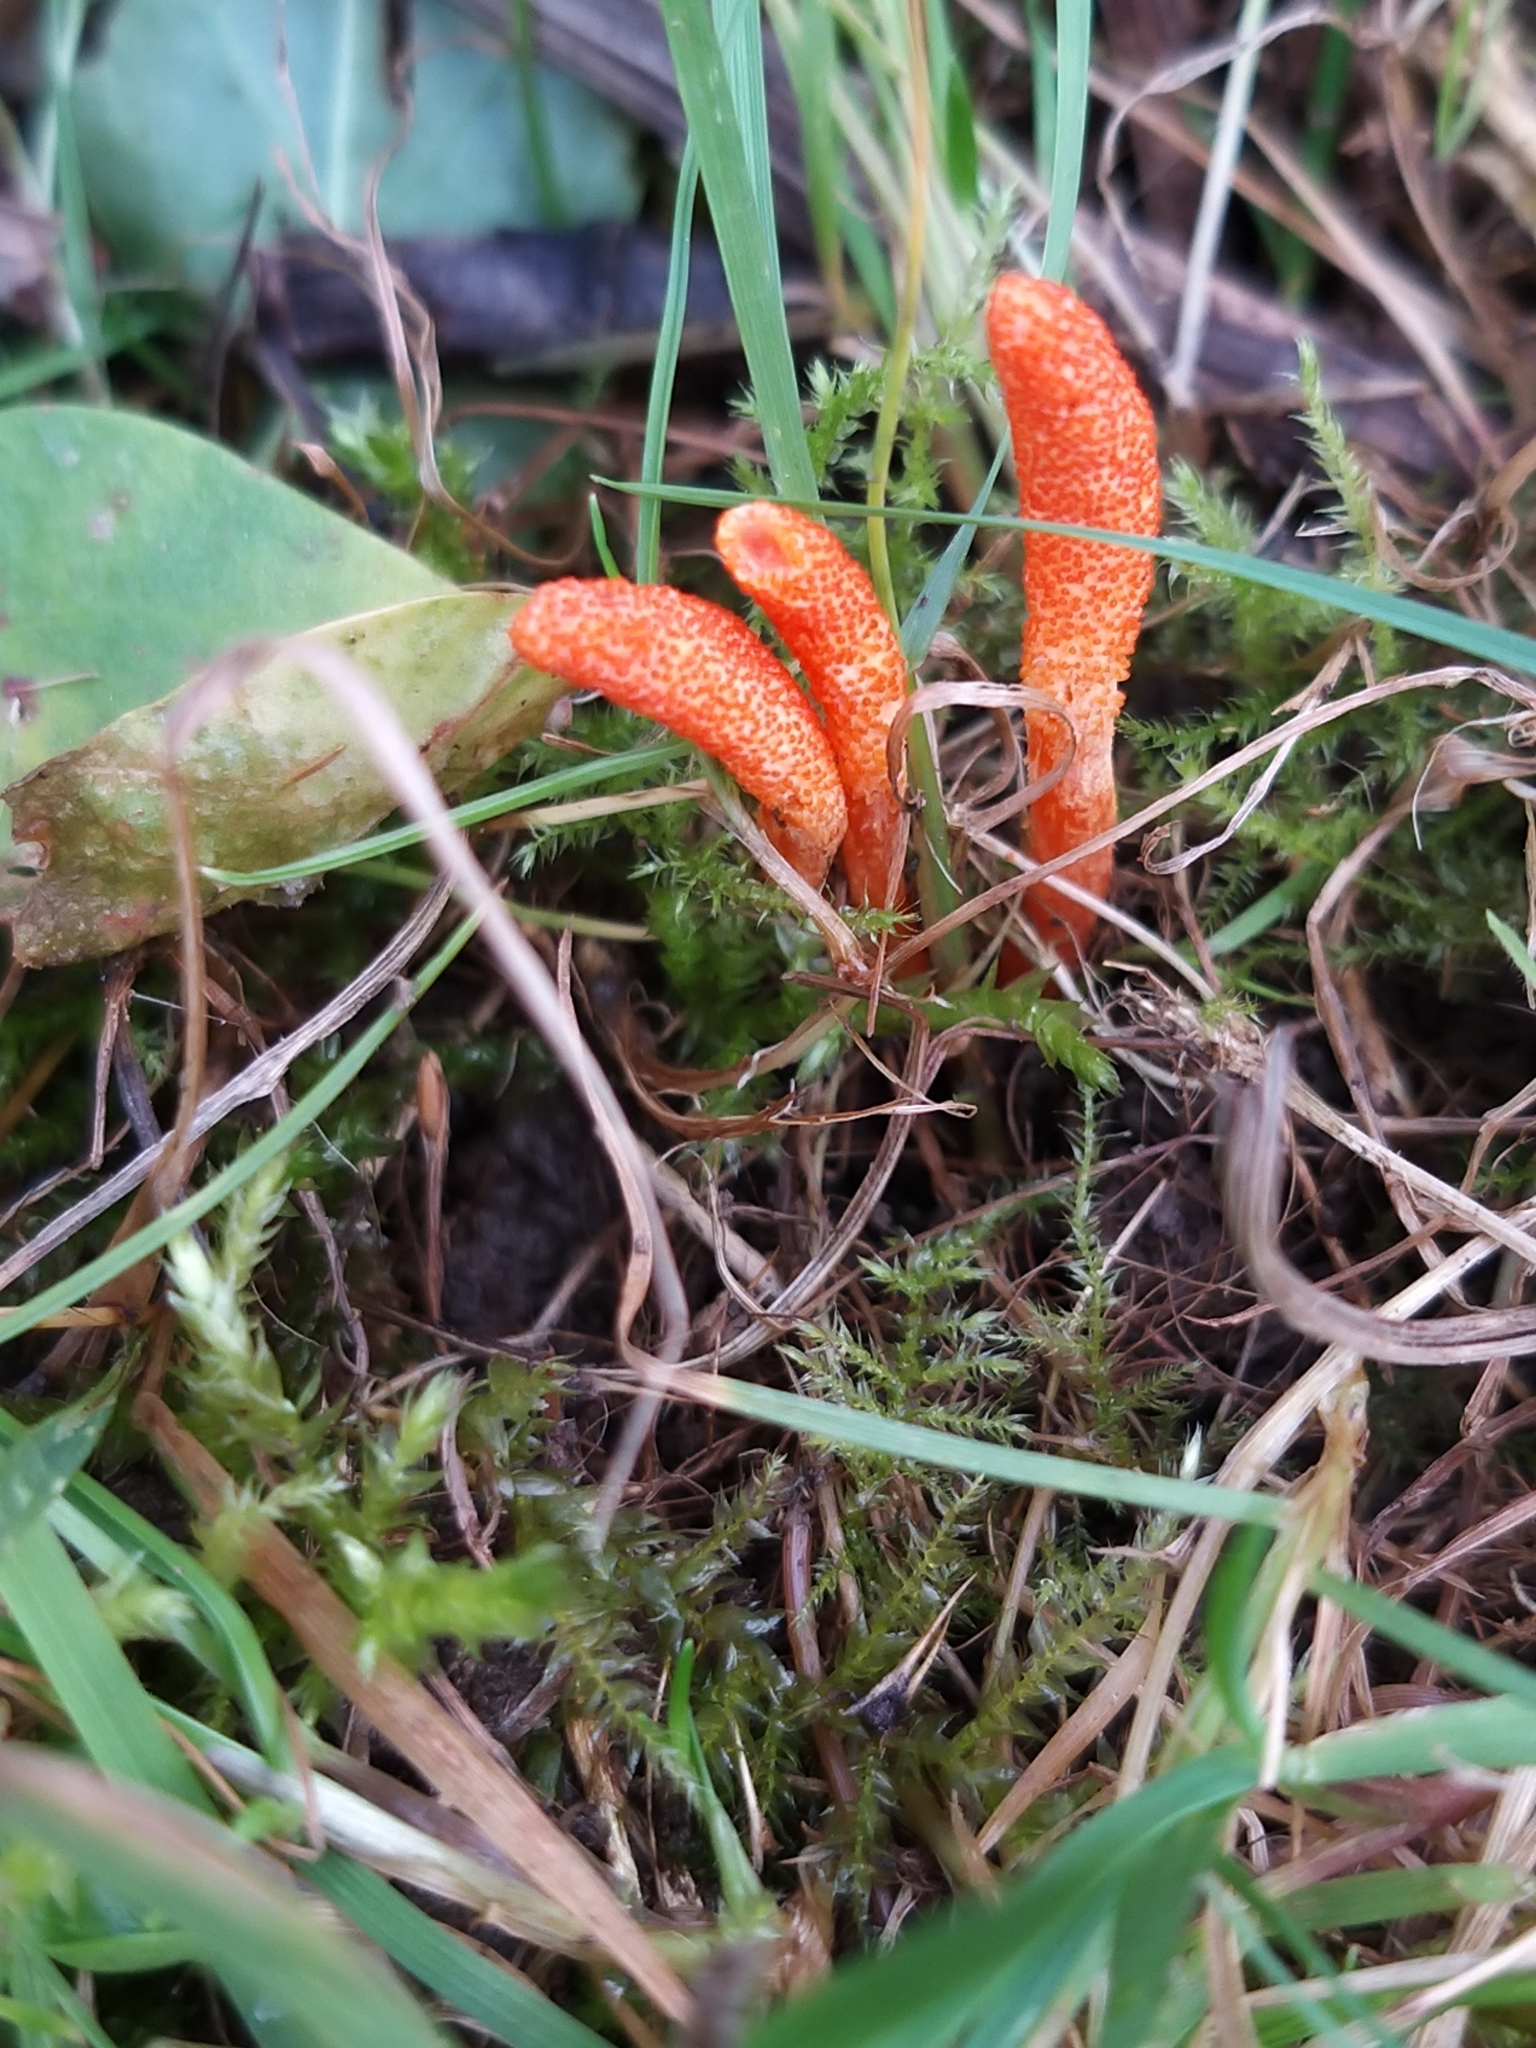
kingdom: Fungi
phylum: Ascomycota
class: Sordariomycetes
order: Hypocreales
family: Cordycipitaceae
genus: Cordyceps
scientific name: Cordyceps militaris
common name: Scarlet caterpillar fungus
